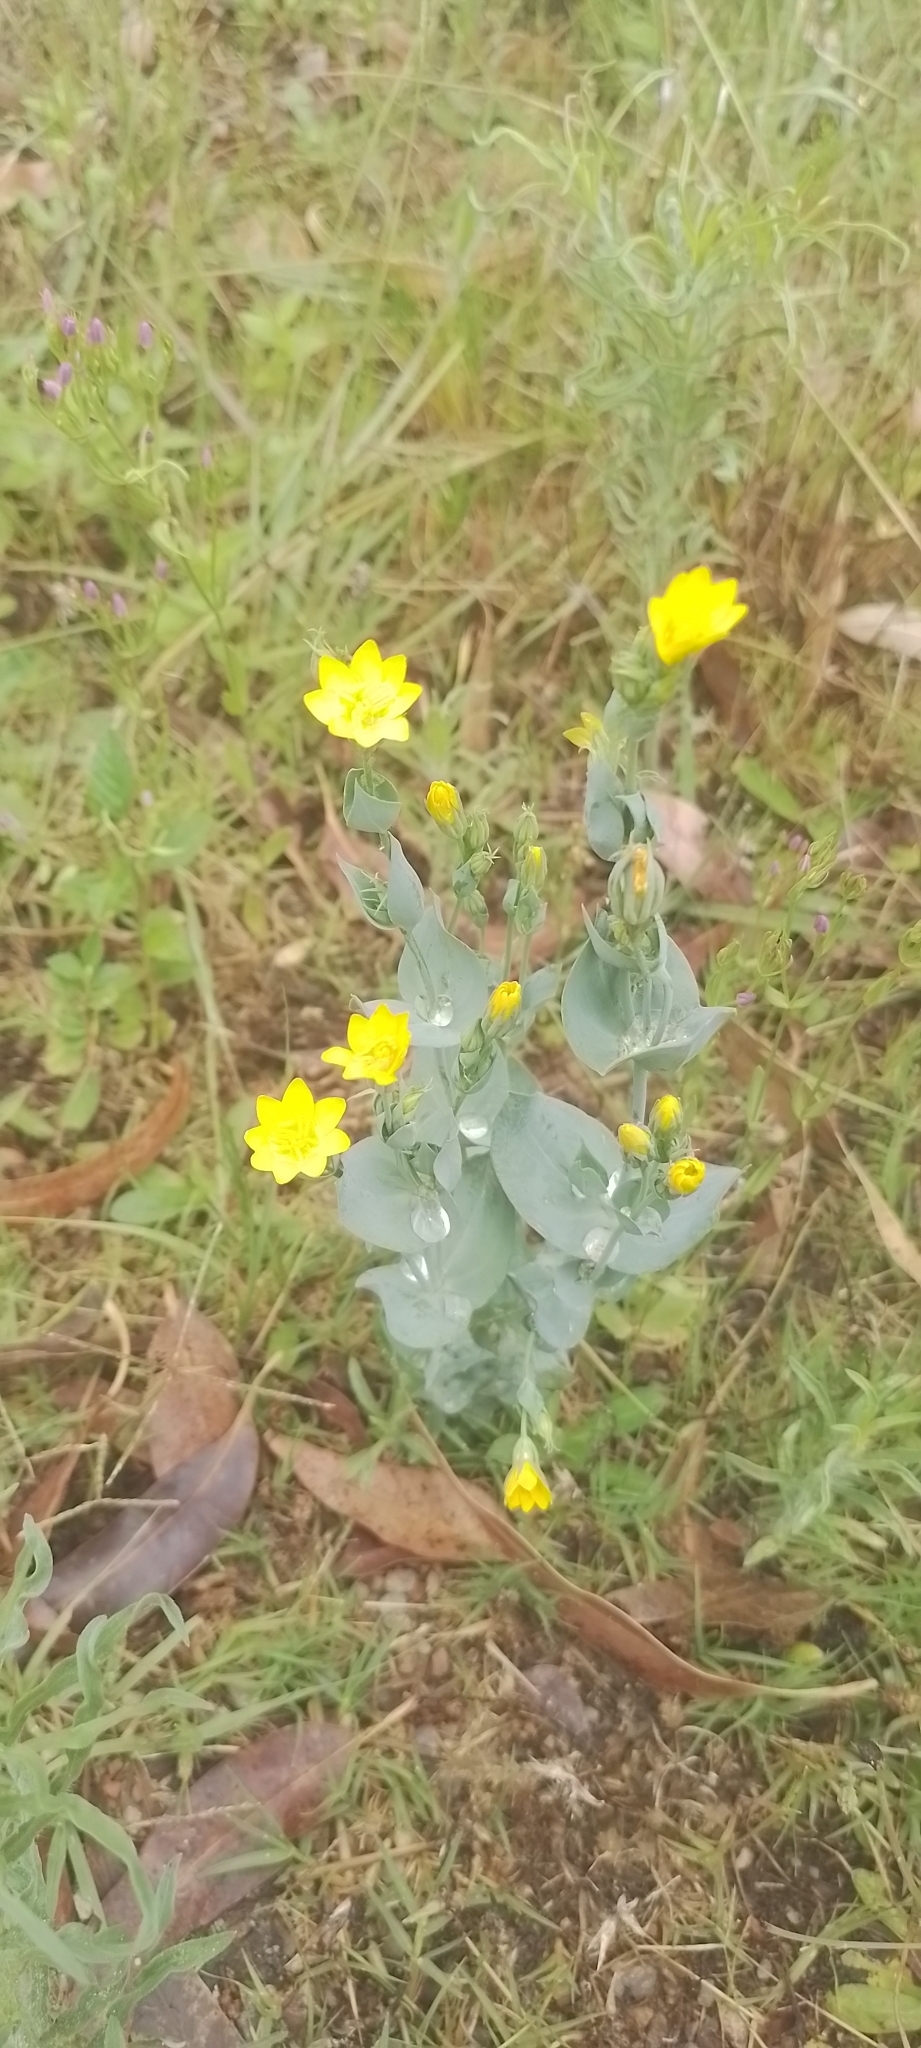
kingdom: Plantae
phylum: Tracheophyta
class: Magnoliopsida
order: Gentianales
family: Gentianaceae
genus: Blackstonia
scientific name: Blackstonia perfoliata
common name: Yellow-wort
